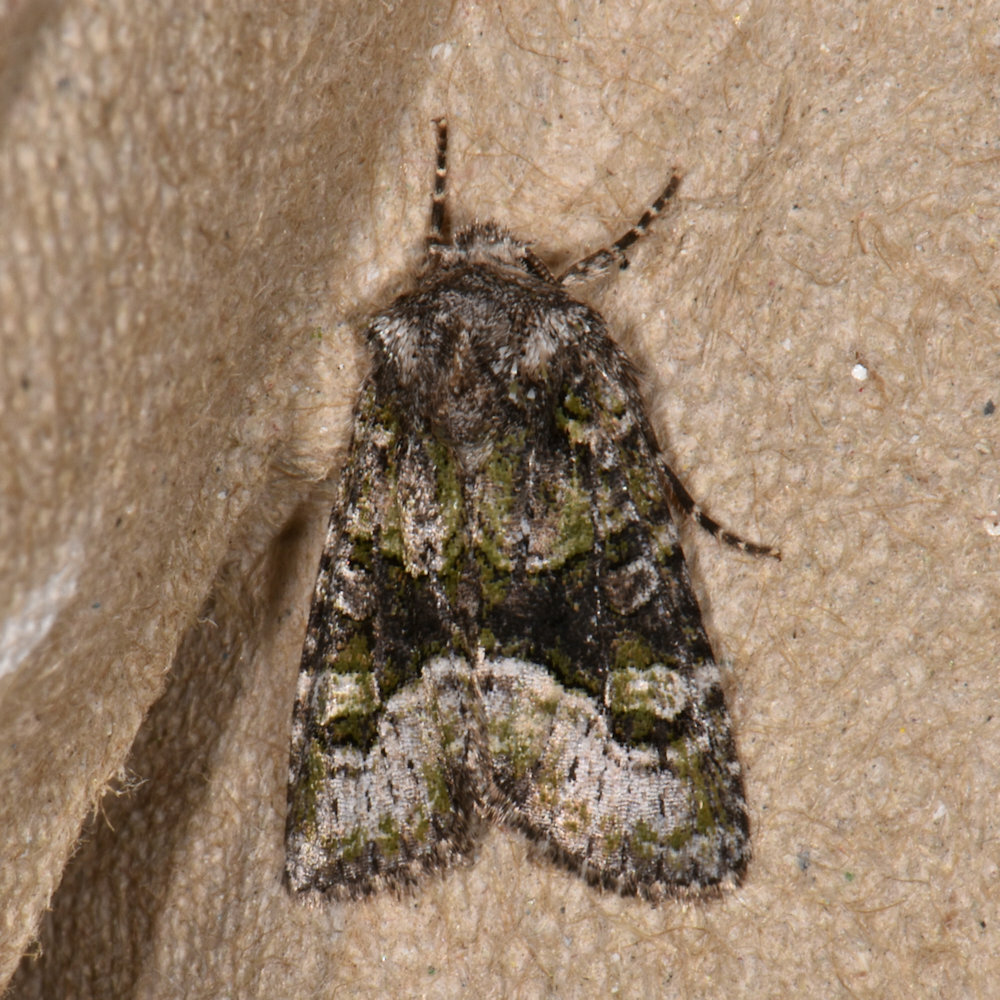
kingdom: Animalia
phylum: Arthropoda
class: Insecta
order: Lepidoptera
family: Noctuidae
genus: Lacinipolia
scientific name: Lacinipolia olivacea
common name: Olive arches moth
